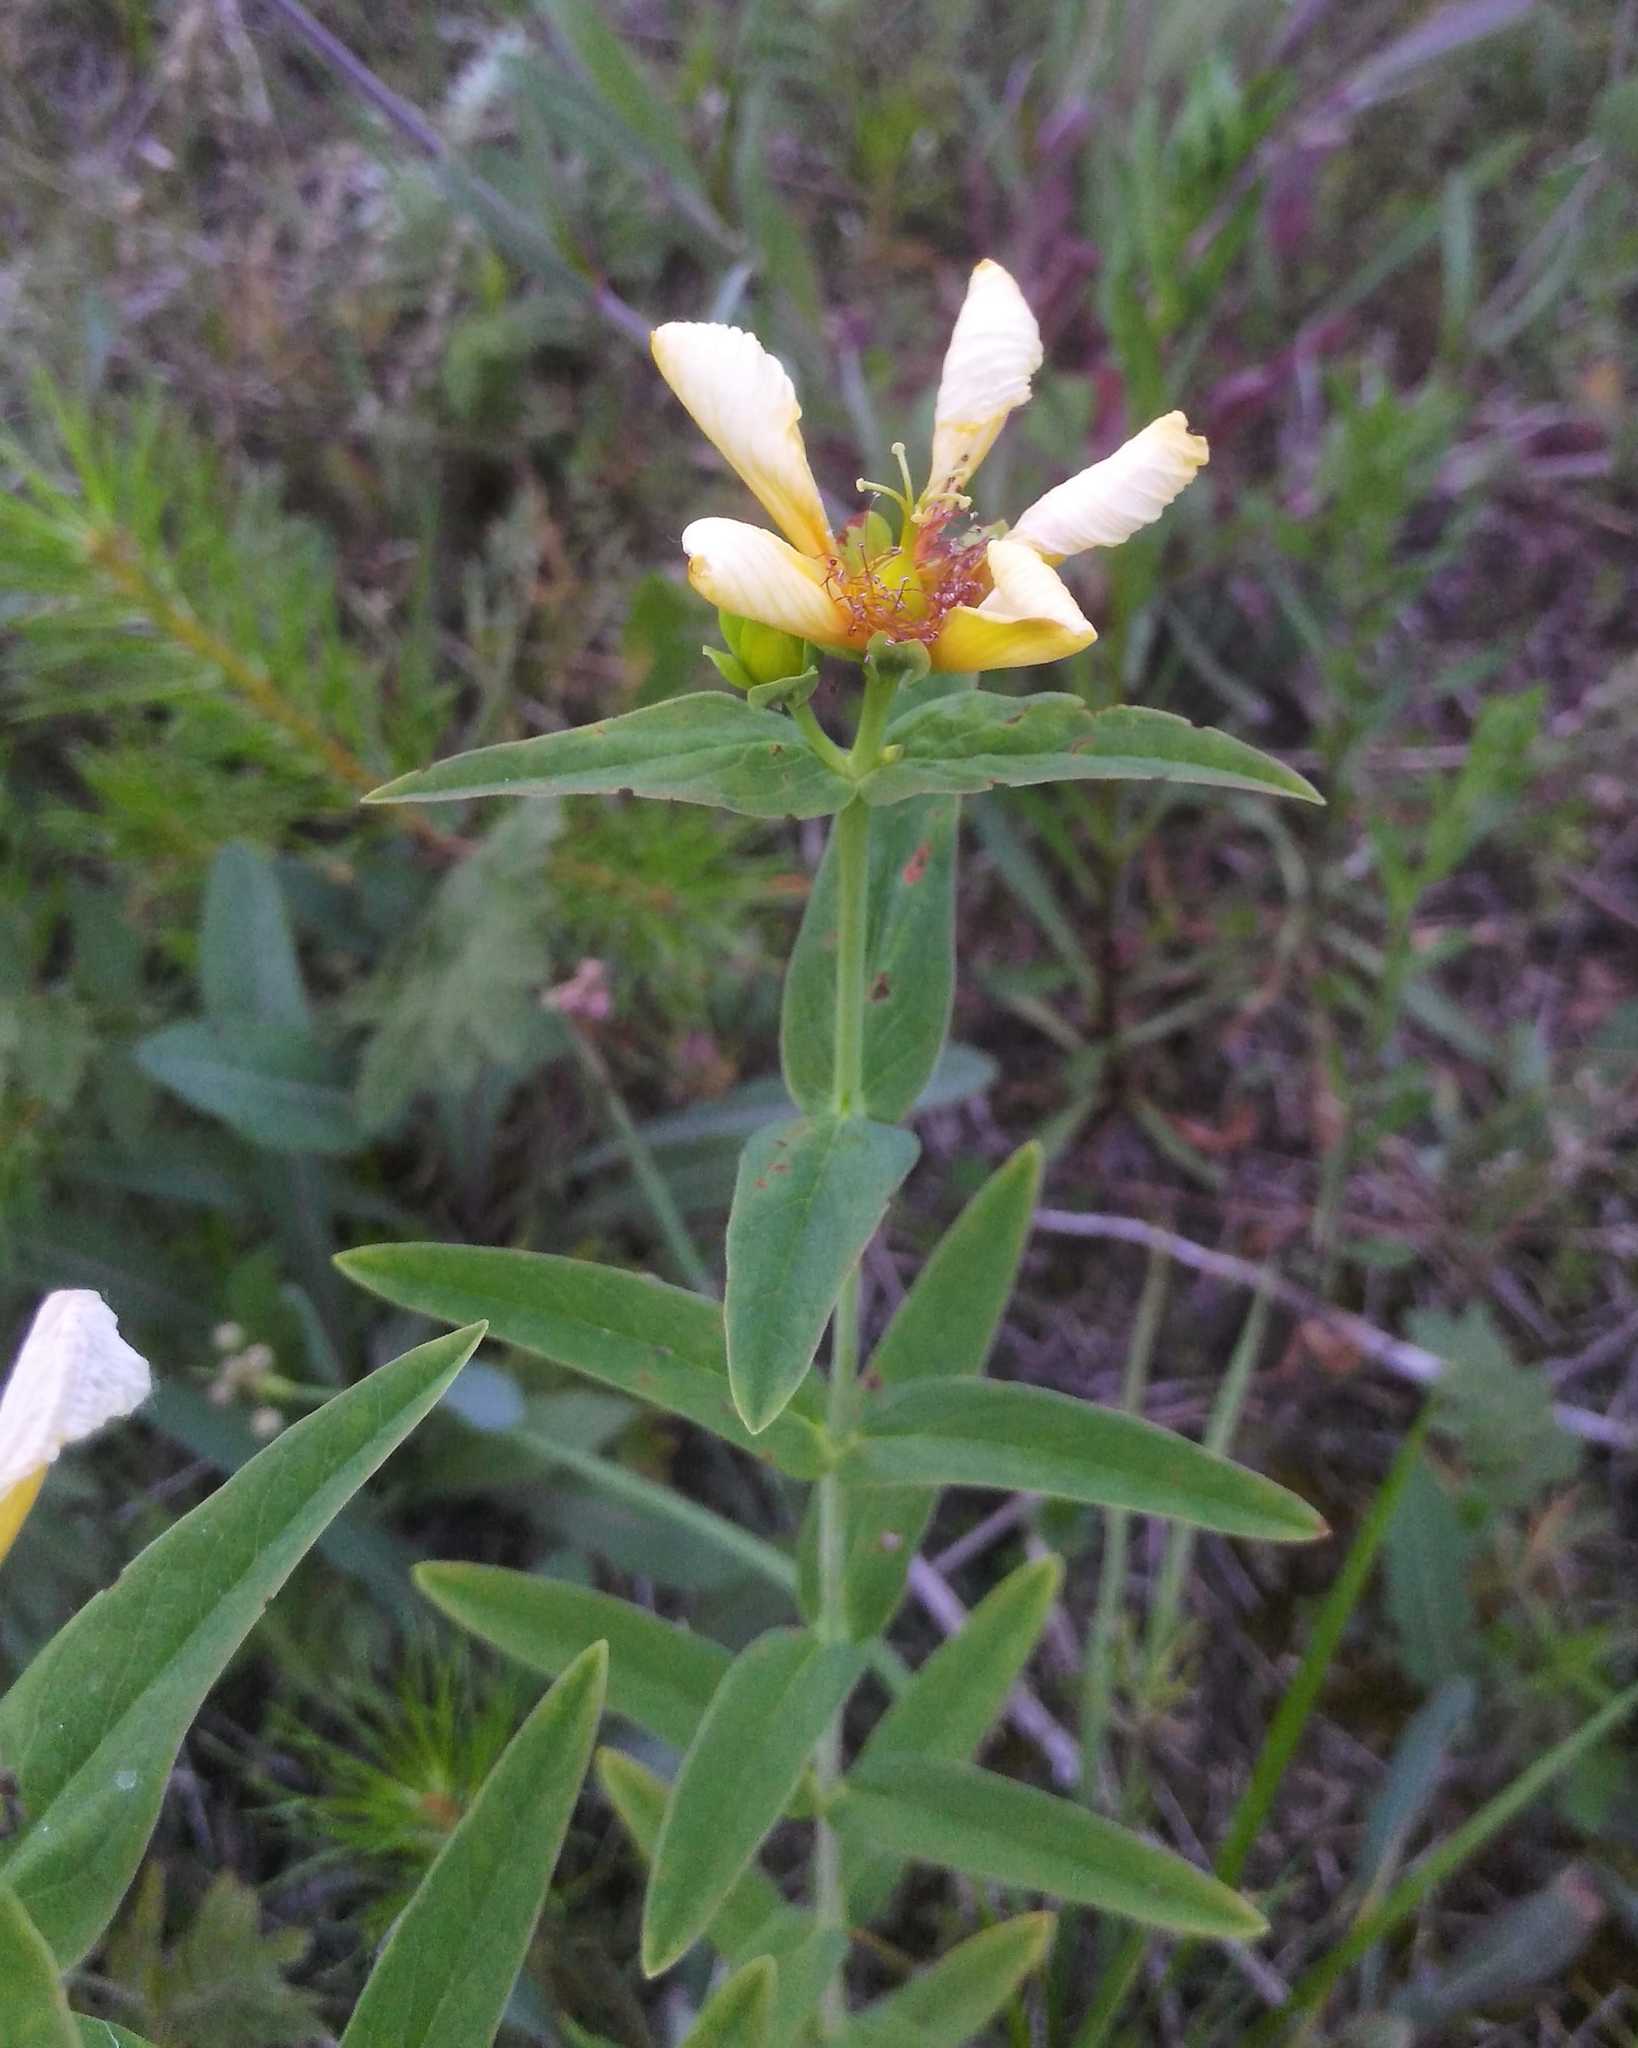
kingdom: Plantae
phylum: Tracheophyta
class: Magnoliopsida
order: Malpighiales
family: Hypericaceae
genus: Hypericum
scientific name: Hypericum ascyron
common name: Giant st. john's-wort
